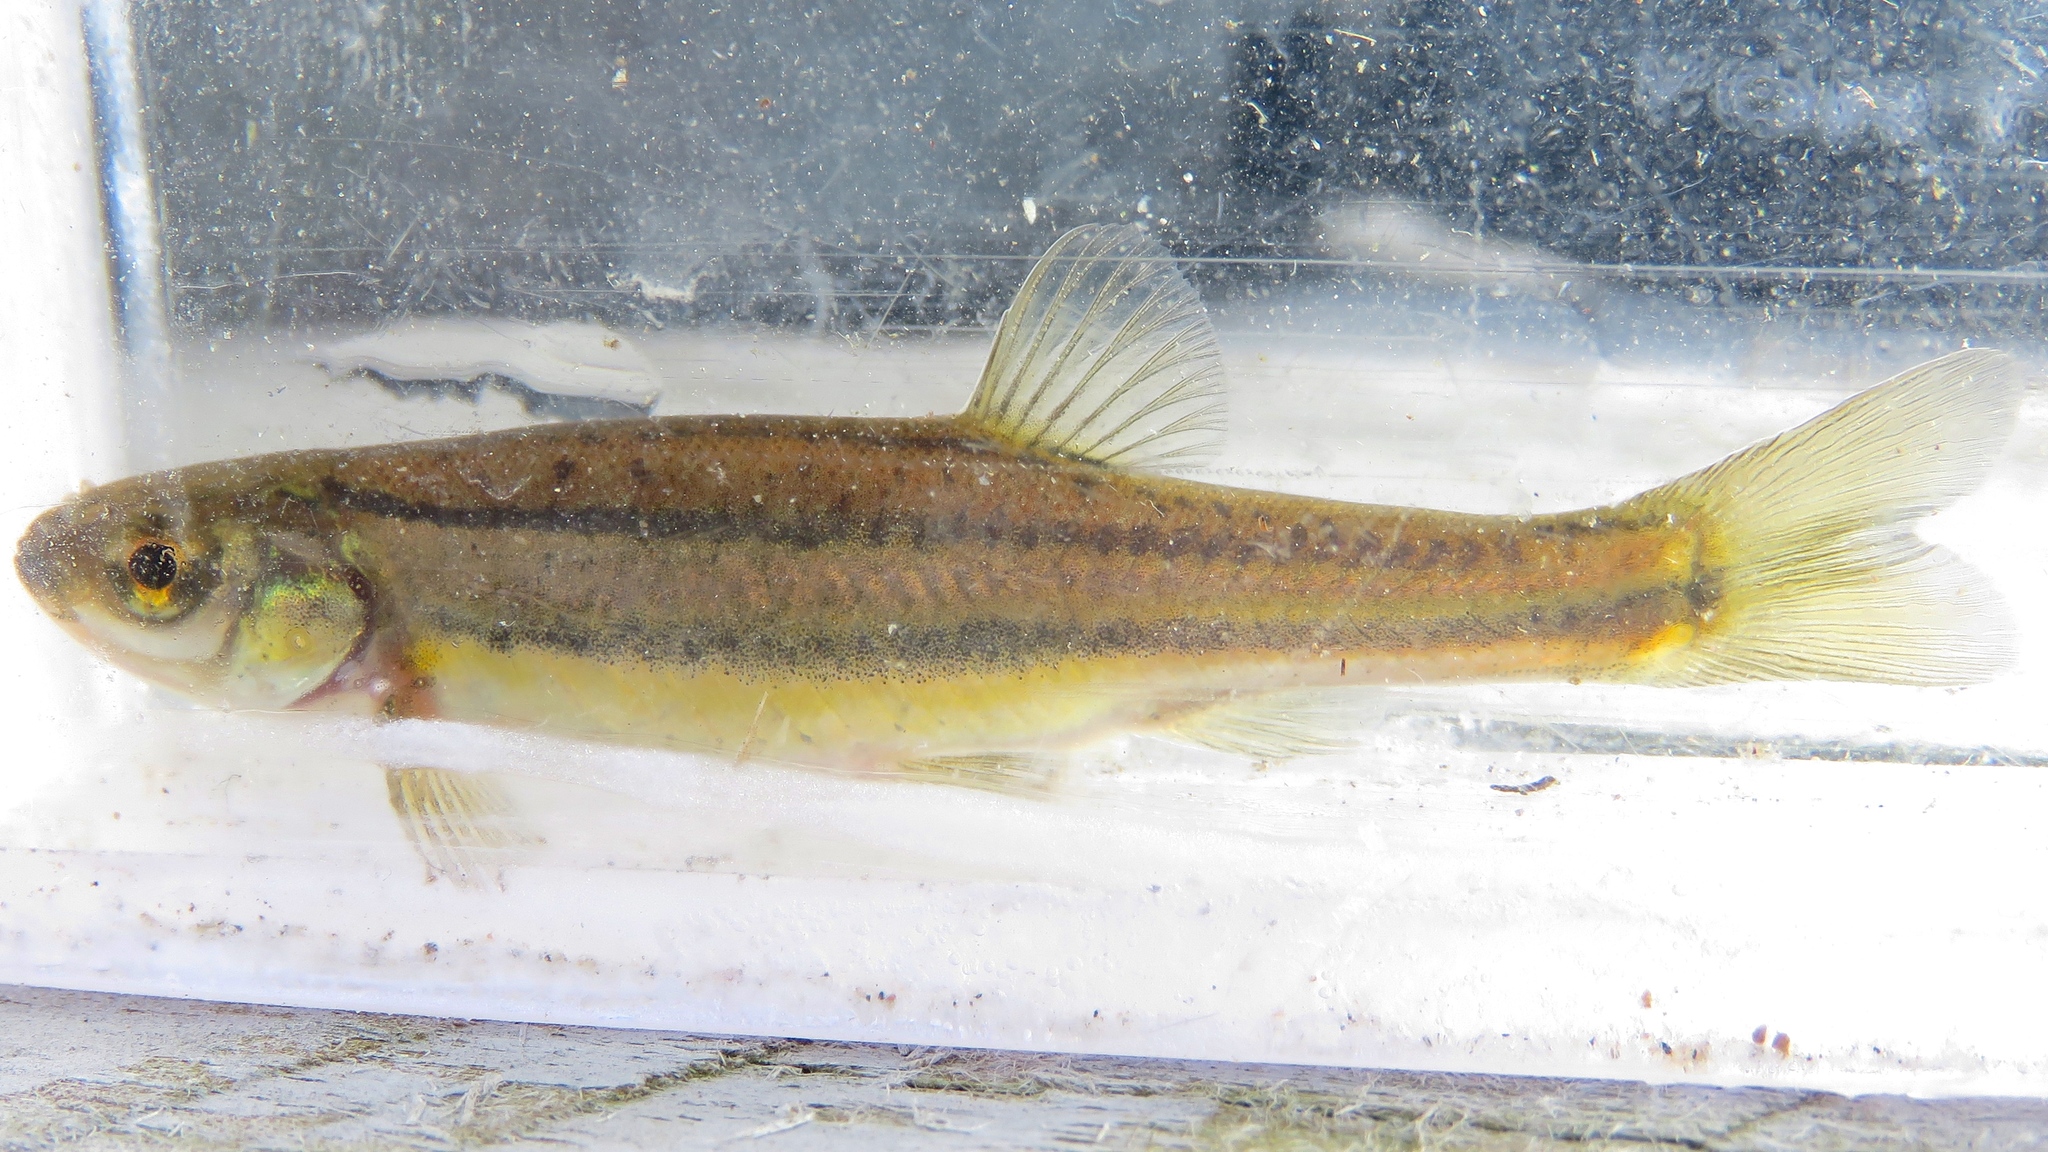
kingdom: Animalia
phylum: Chordata
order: Cypriniformes
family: Cyprinidae
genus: Chrosomus
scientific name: Chrosomus eos
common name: Northern redbelly dace
